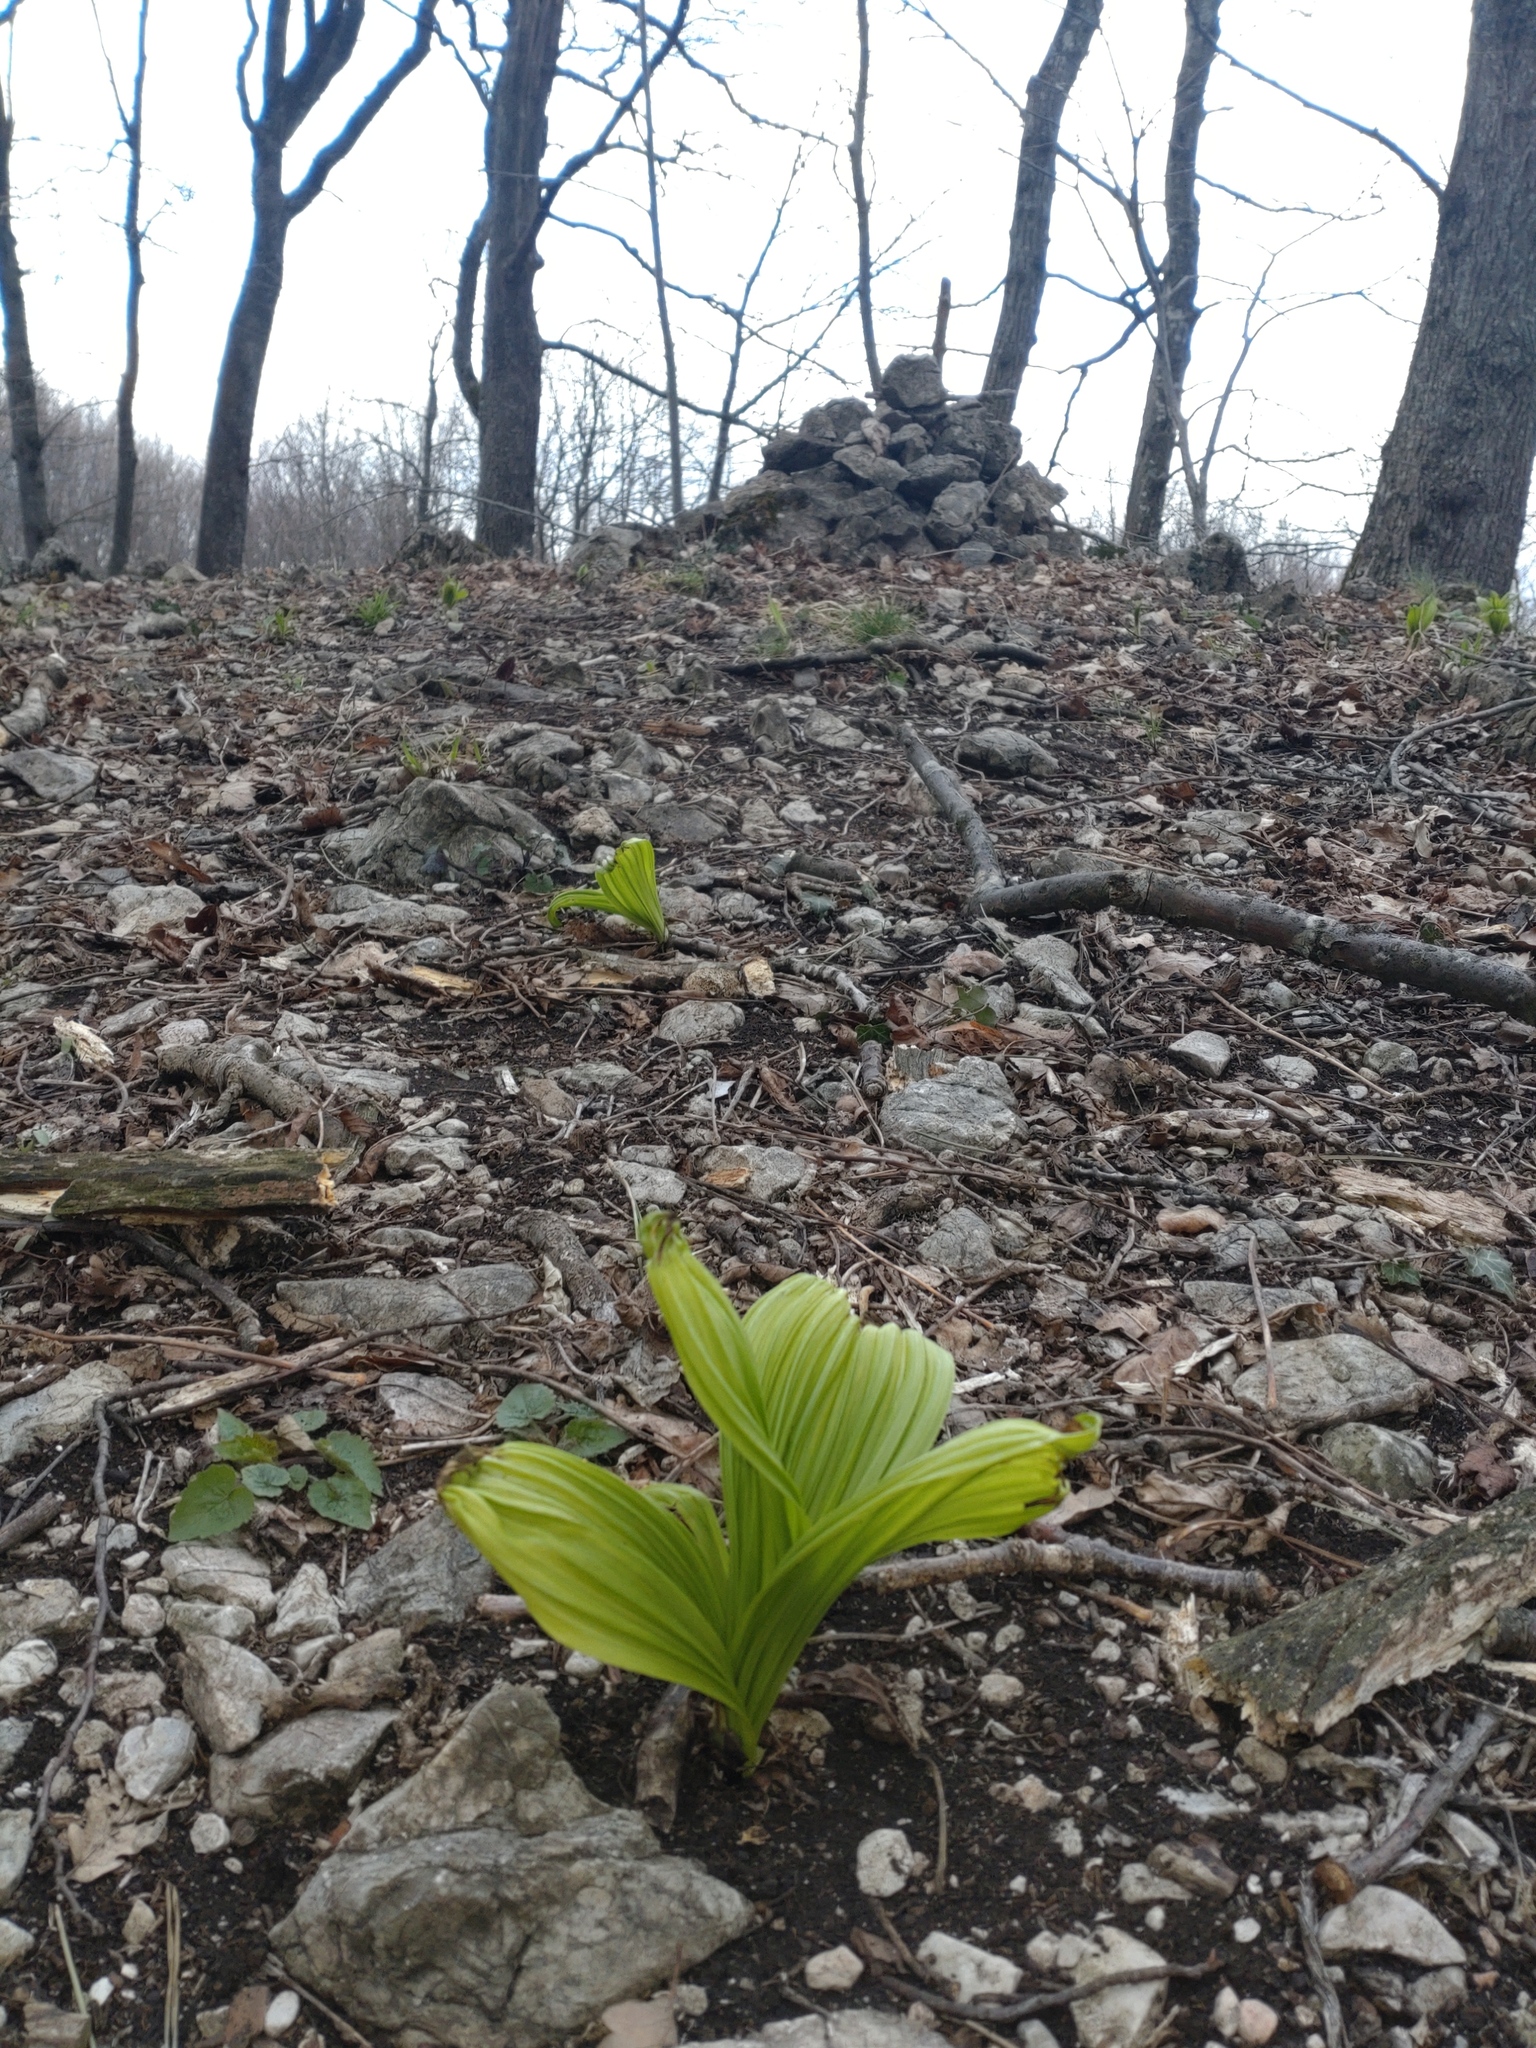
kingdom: Plantae
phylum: Tracheophyta
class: Liliopsida
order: Liliales
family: Melanthiaceae
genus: Veratrum
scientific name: Veratrum nigrum
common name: Black veratrum
